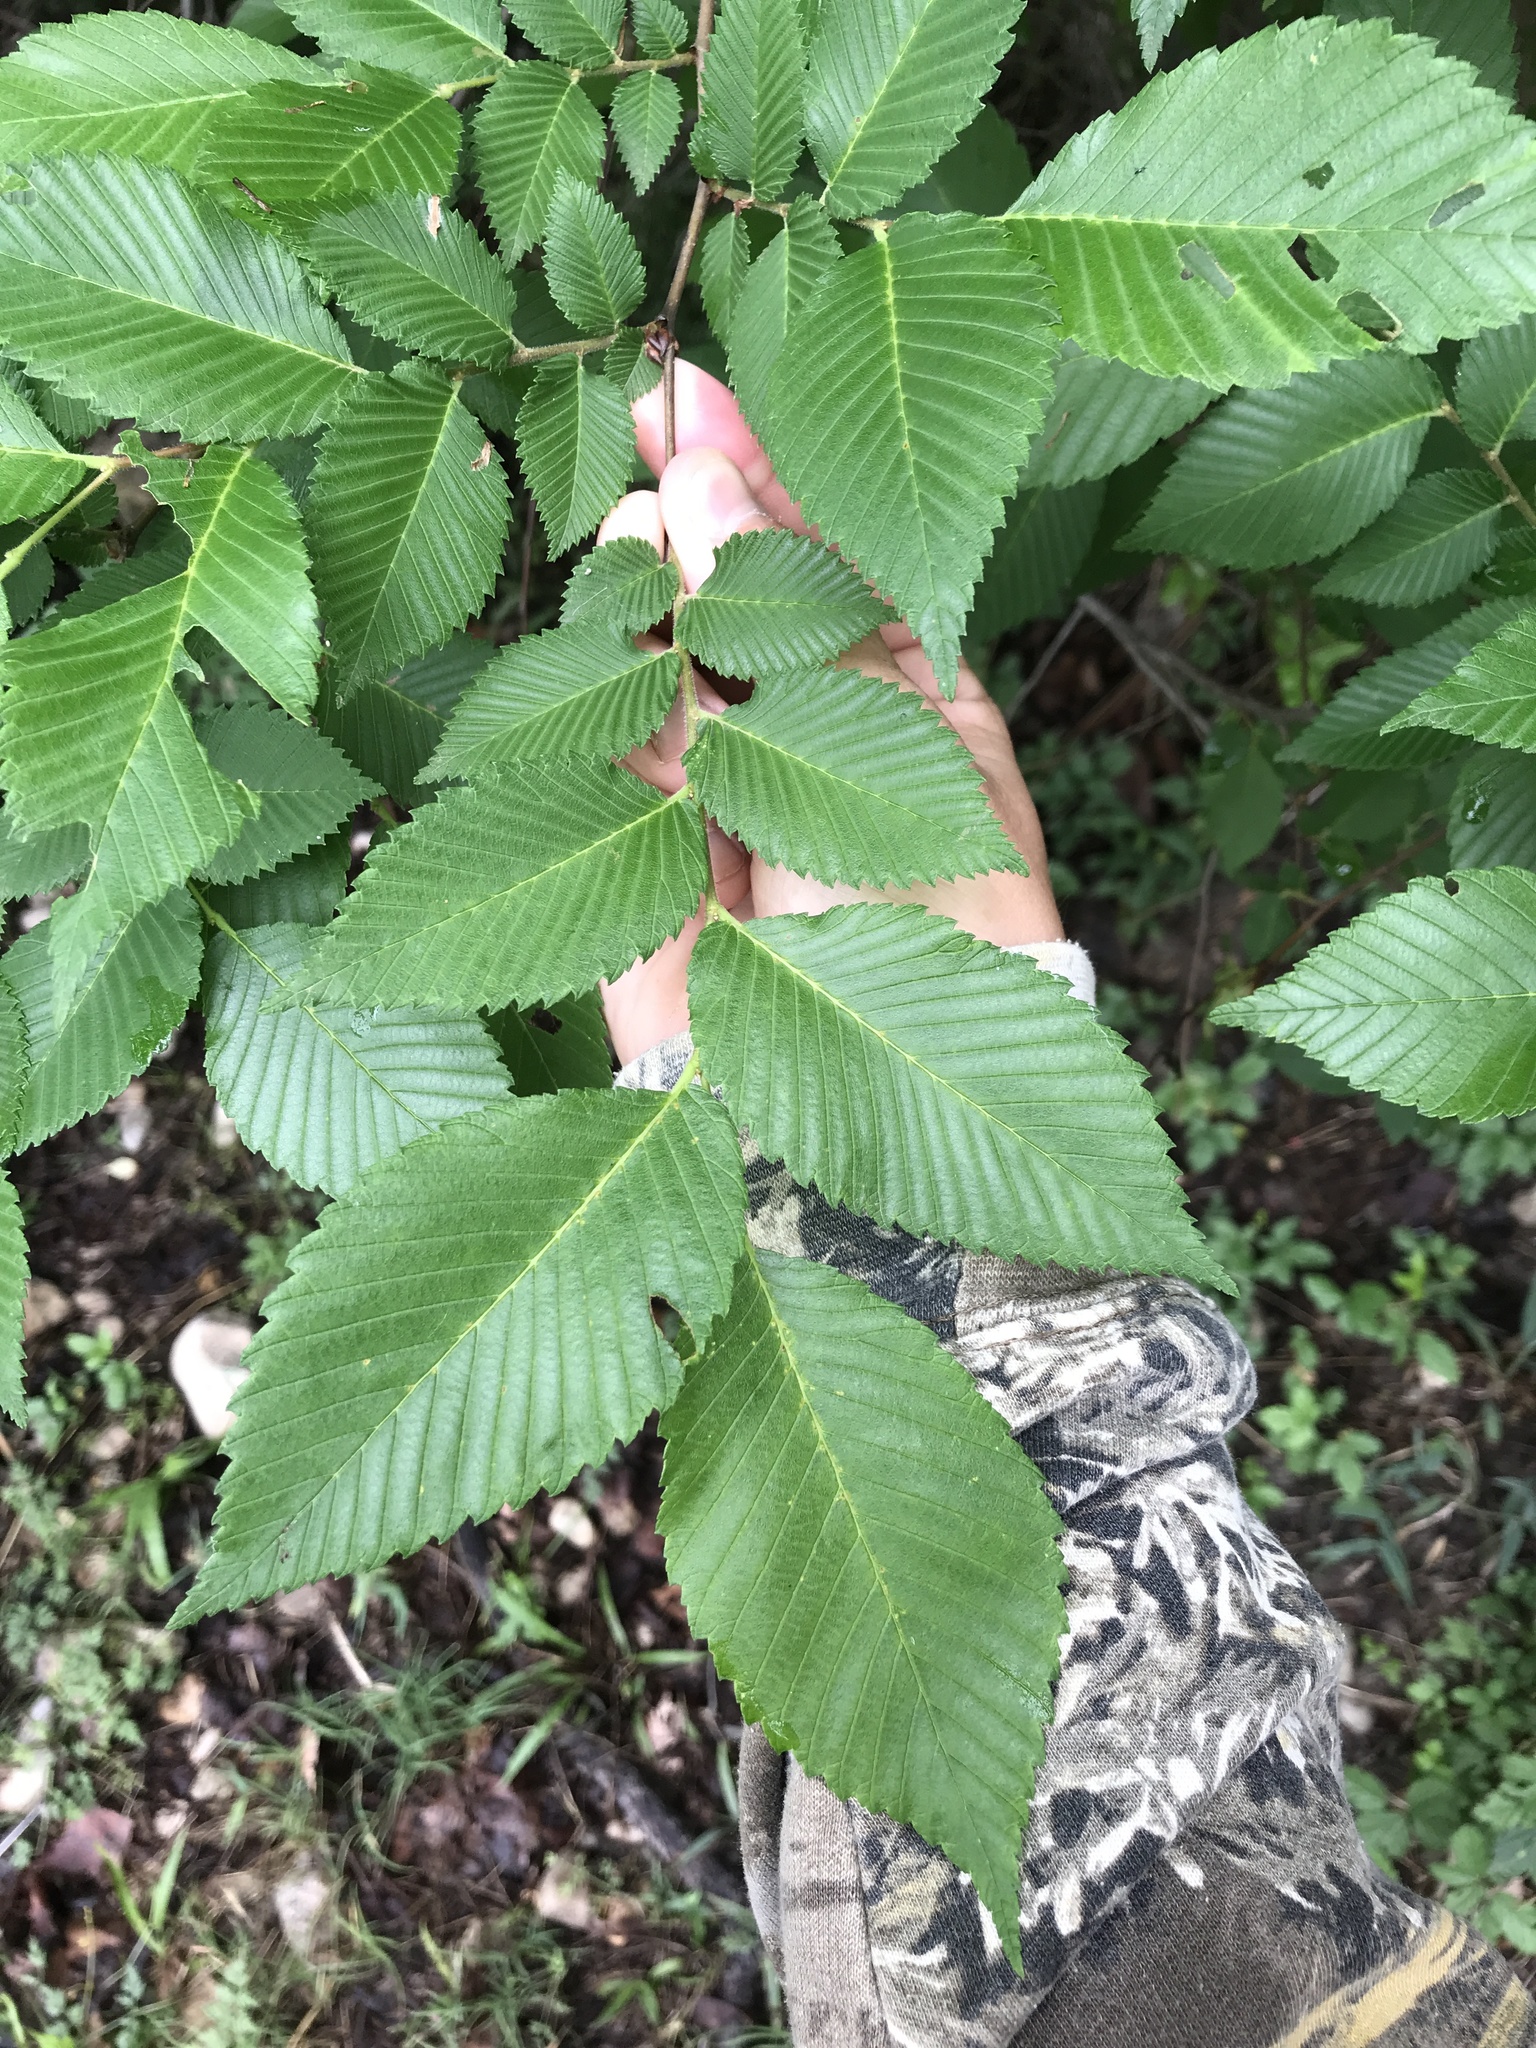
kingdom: Plantae
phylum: Tracheophyta
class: Magnoliopsida
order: Rosales
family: Ulmaceae
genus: Ulmus
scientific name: Ulmus americana
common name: American elm
